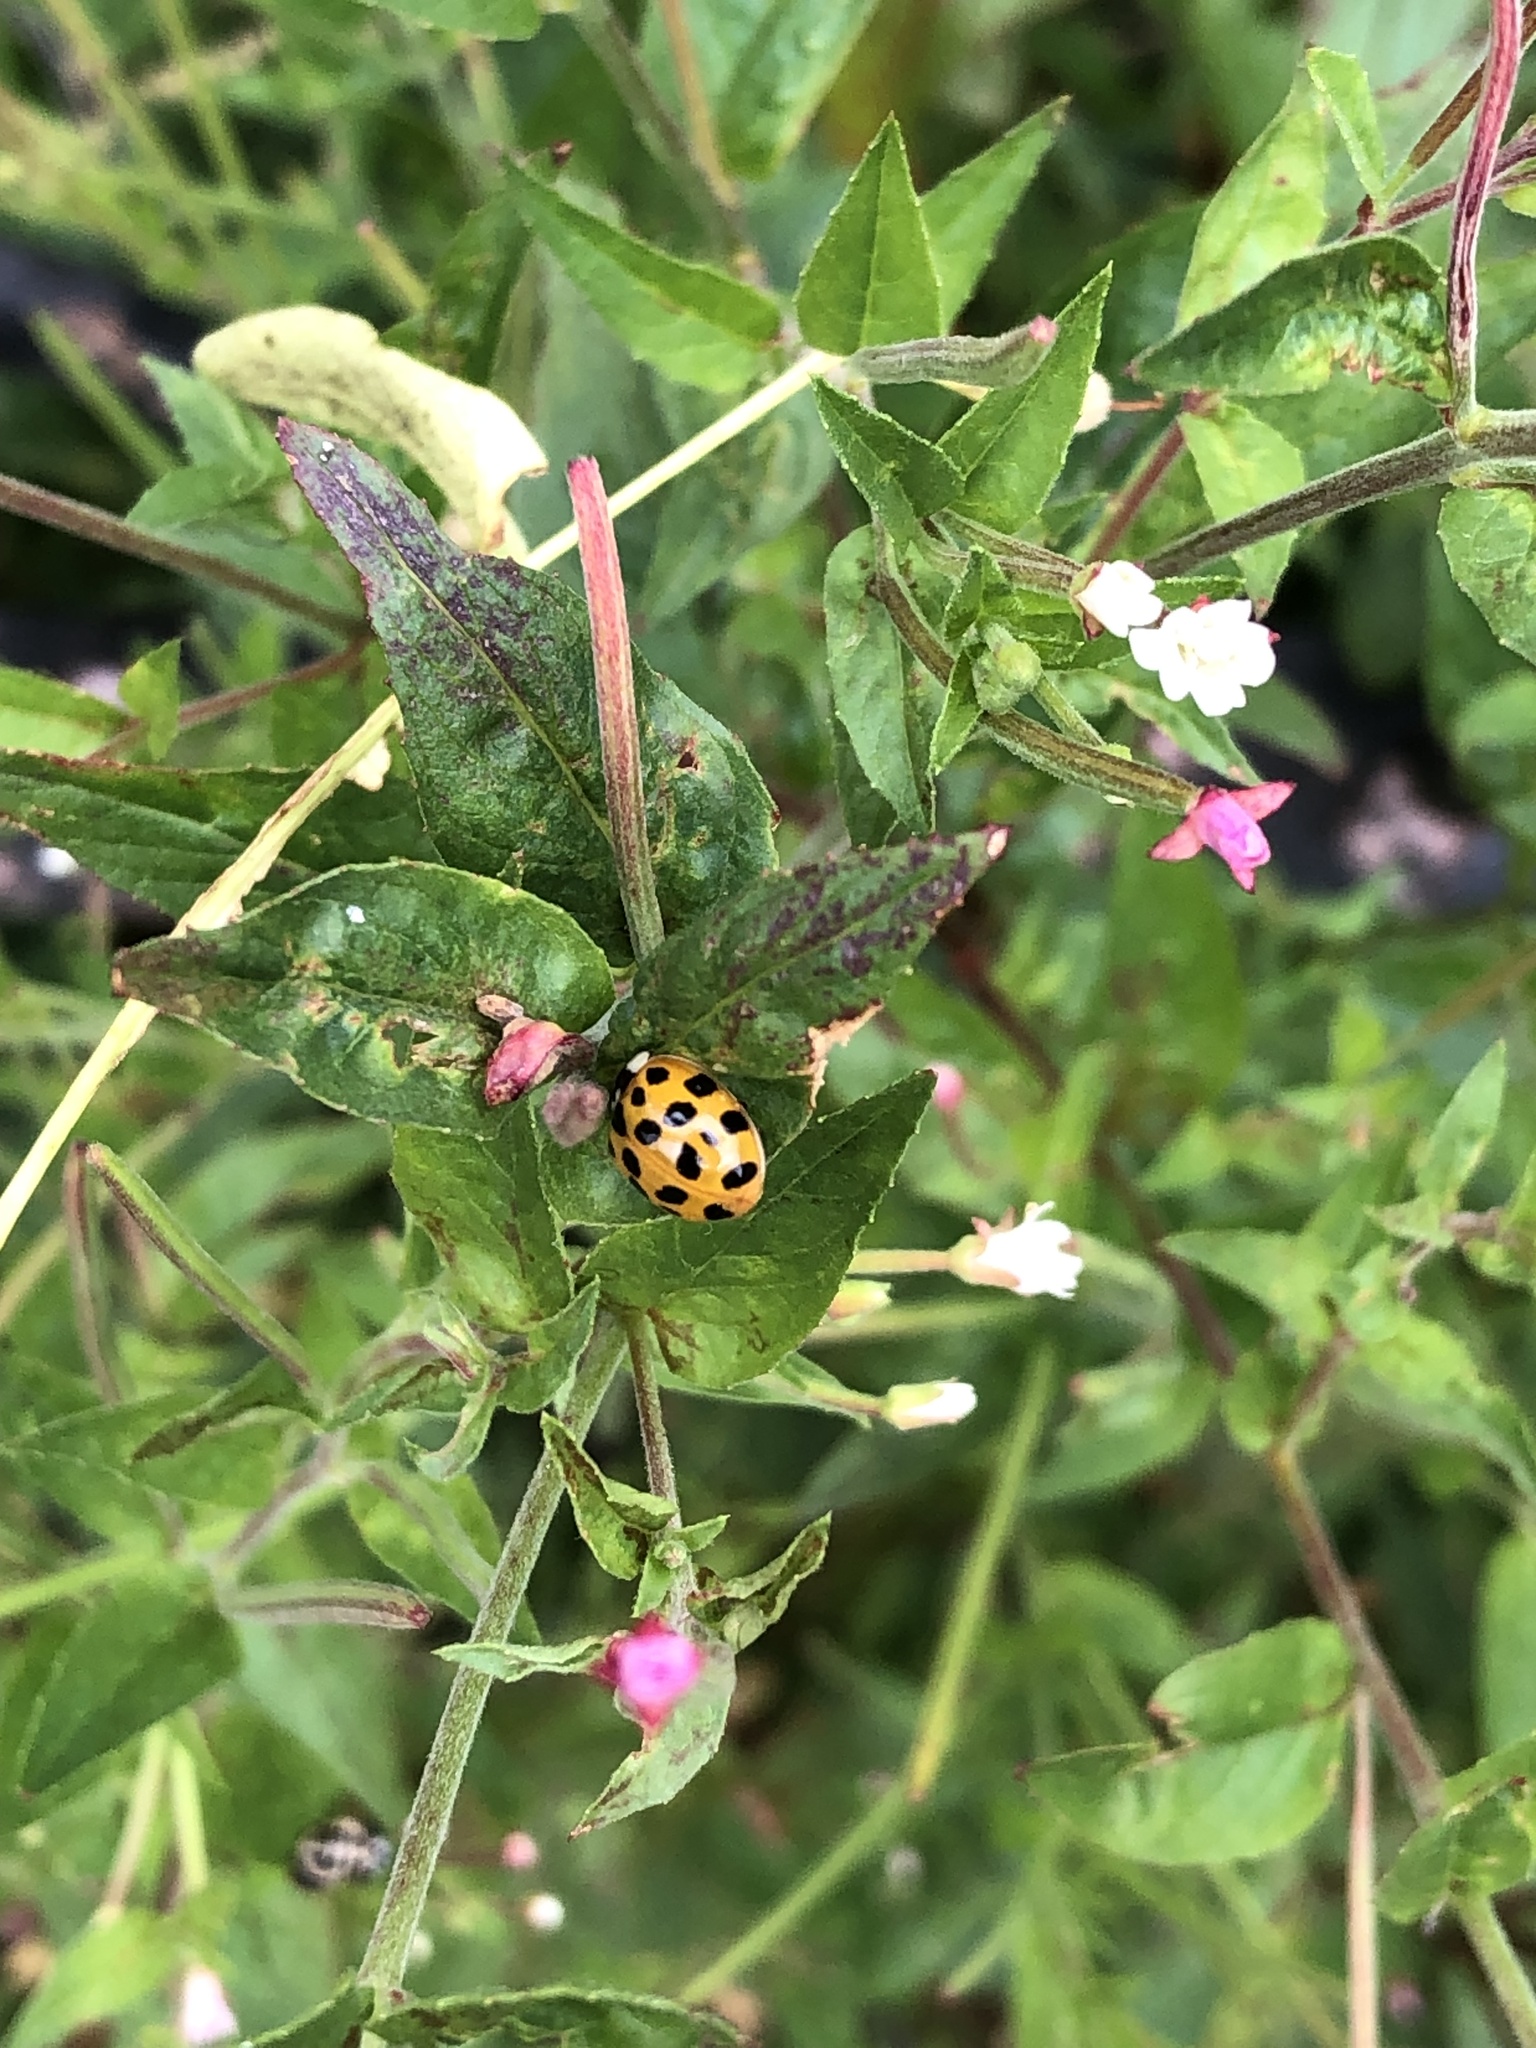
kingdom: Animalia
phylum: Arthropoda
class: Insecta
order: Coleoptera
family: Coccinellidae
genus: Harmonia
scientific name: Harmonia axyridis
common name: Harlequin ladybird
